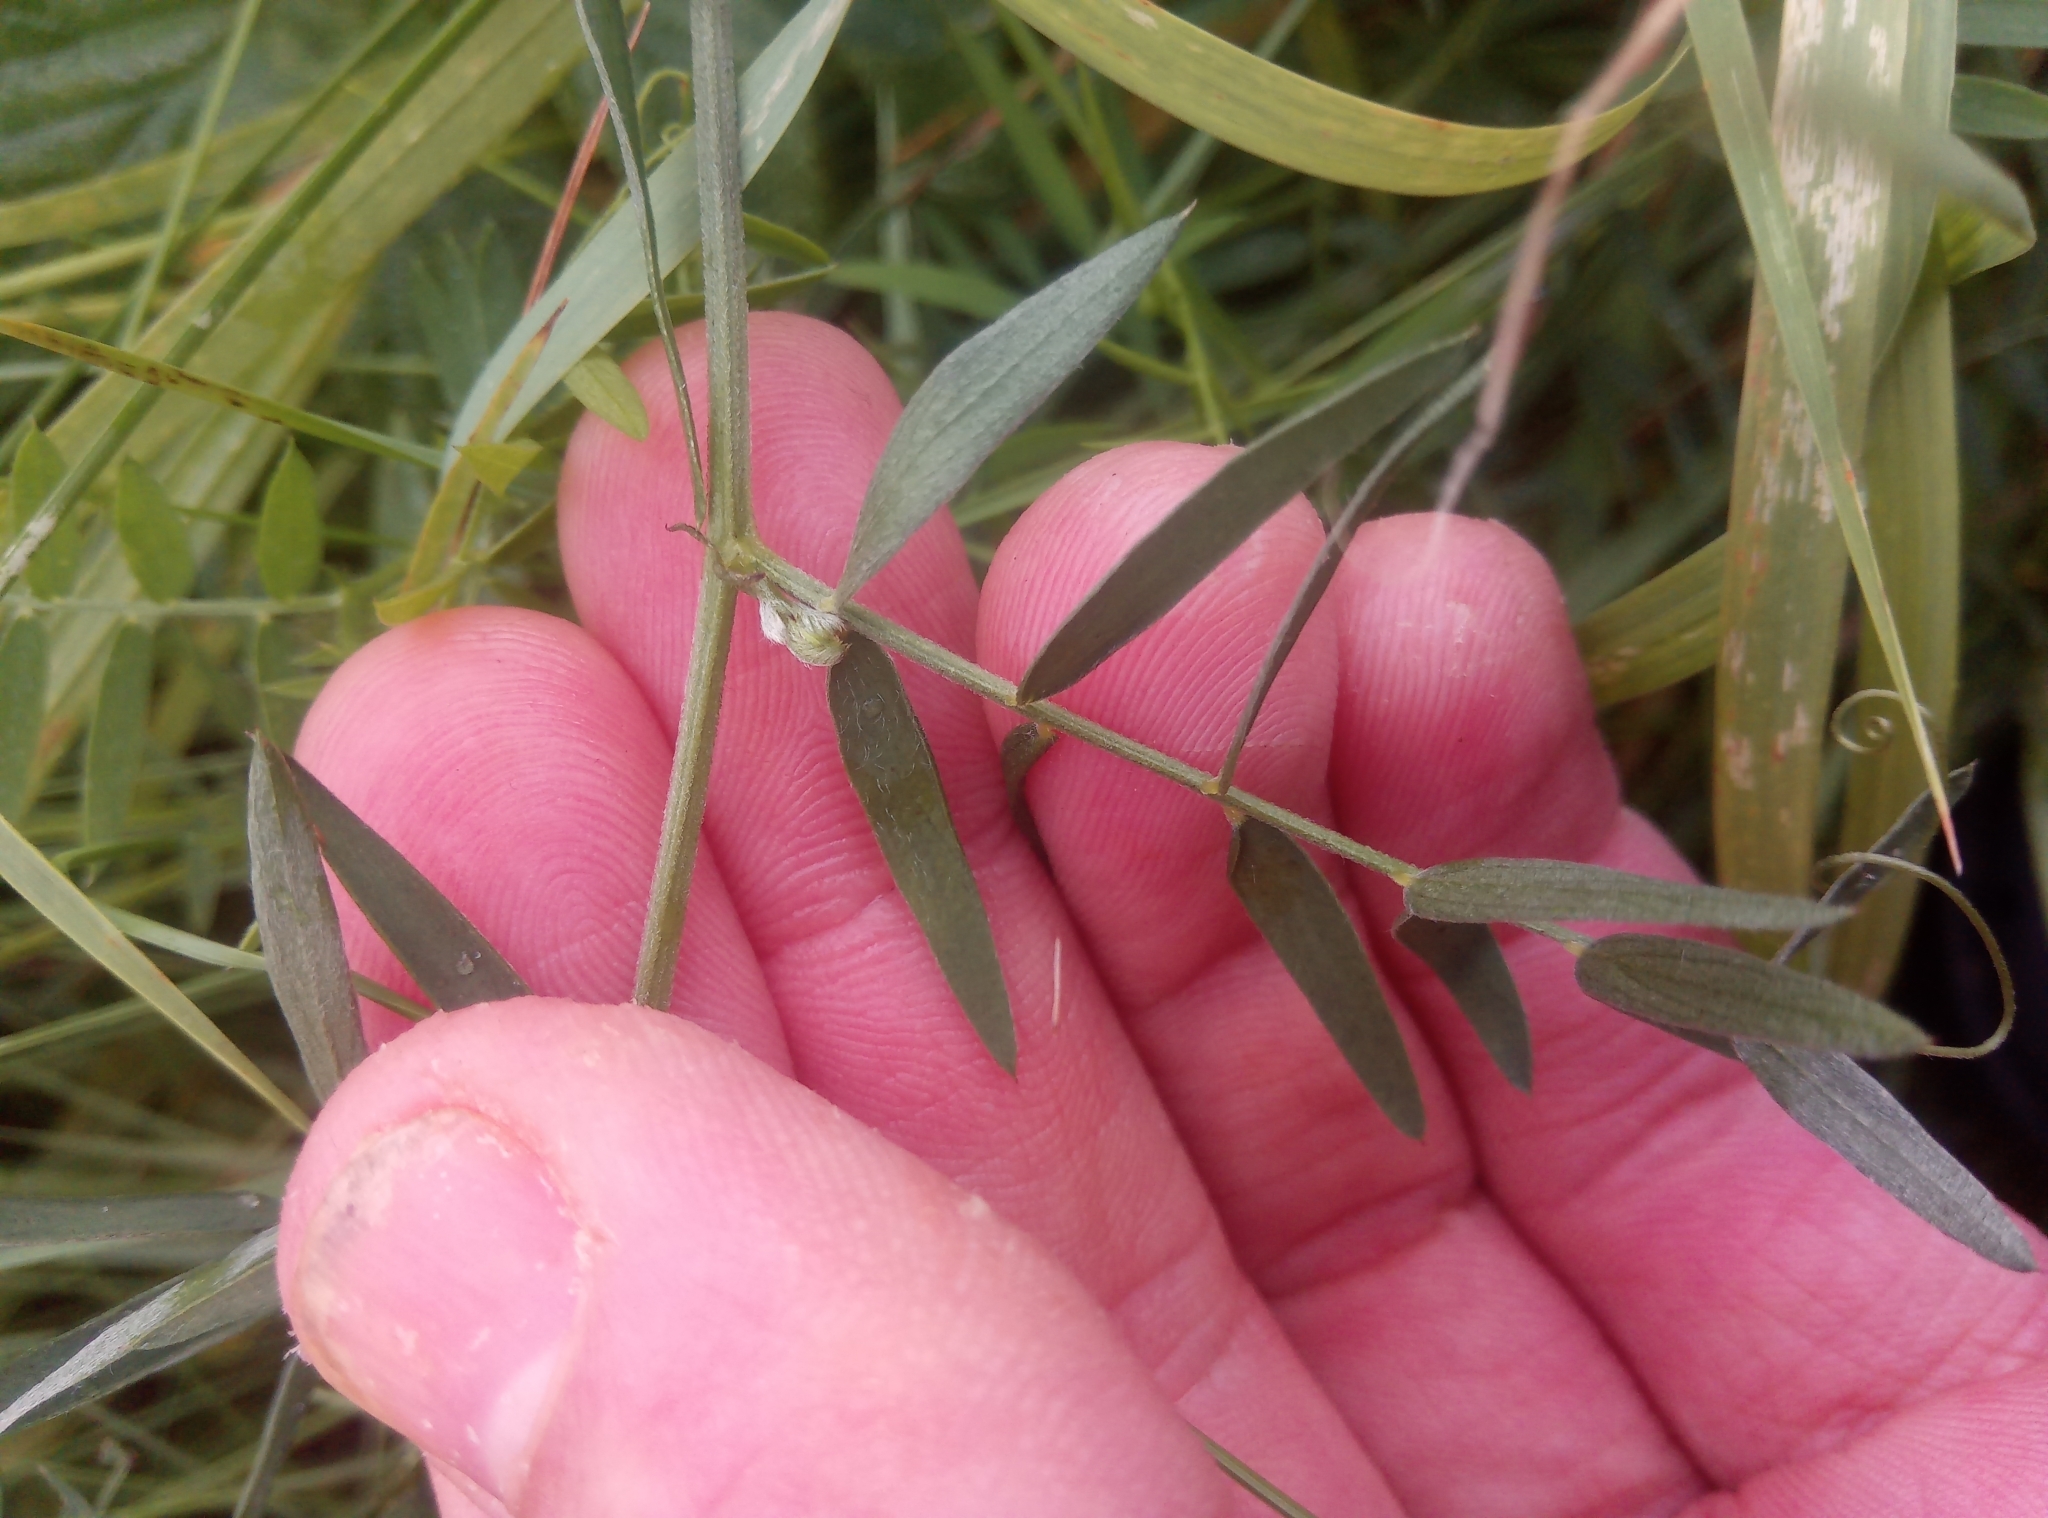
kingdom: Plantae
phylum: Tracheophyta
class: Magnoliopsida
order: Fabales
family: Fabaceae
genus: Vicia
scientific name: Vicia cracca
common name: Bird vetch
